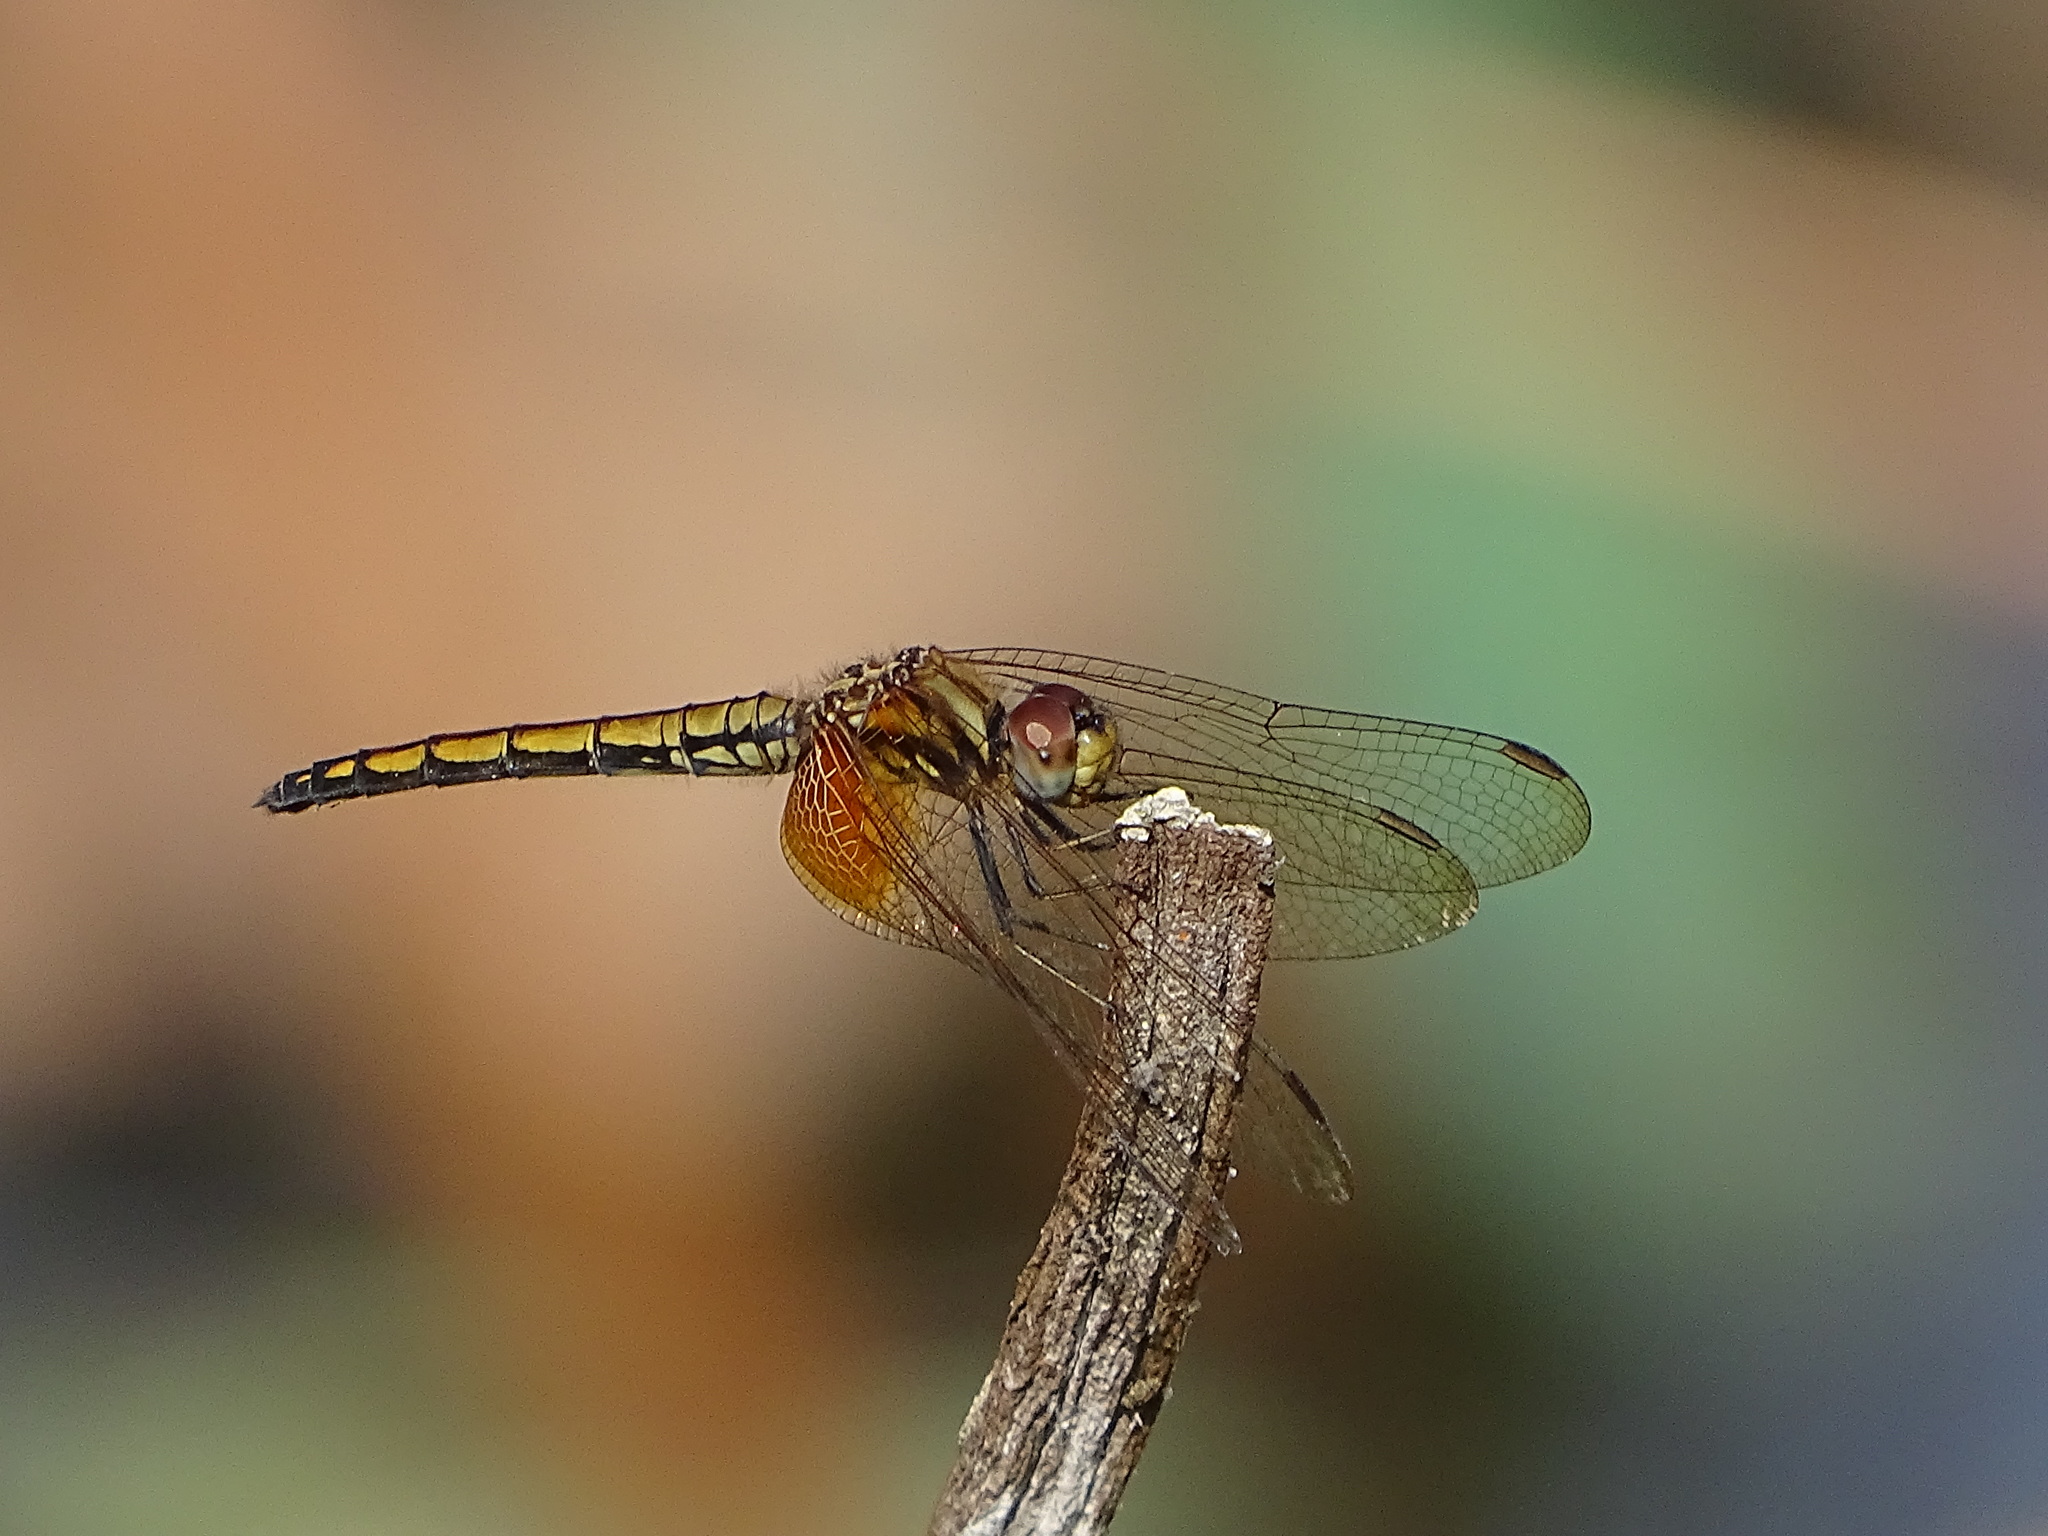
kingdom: Animalia
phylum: Arthropoda
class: Insecta
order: Odonata
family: Libellulidae
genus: Trithemis
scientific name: Trithemis aurora
